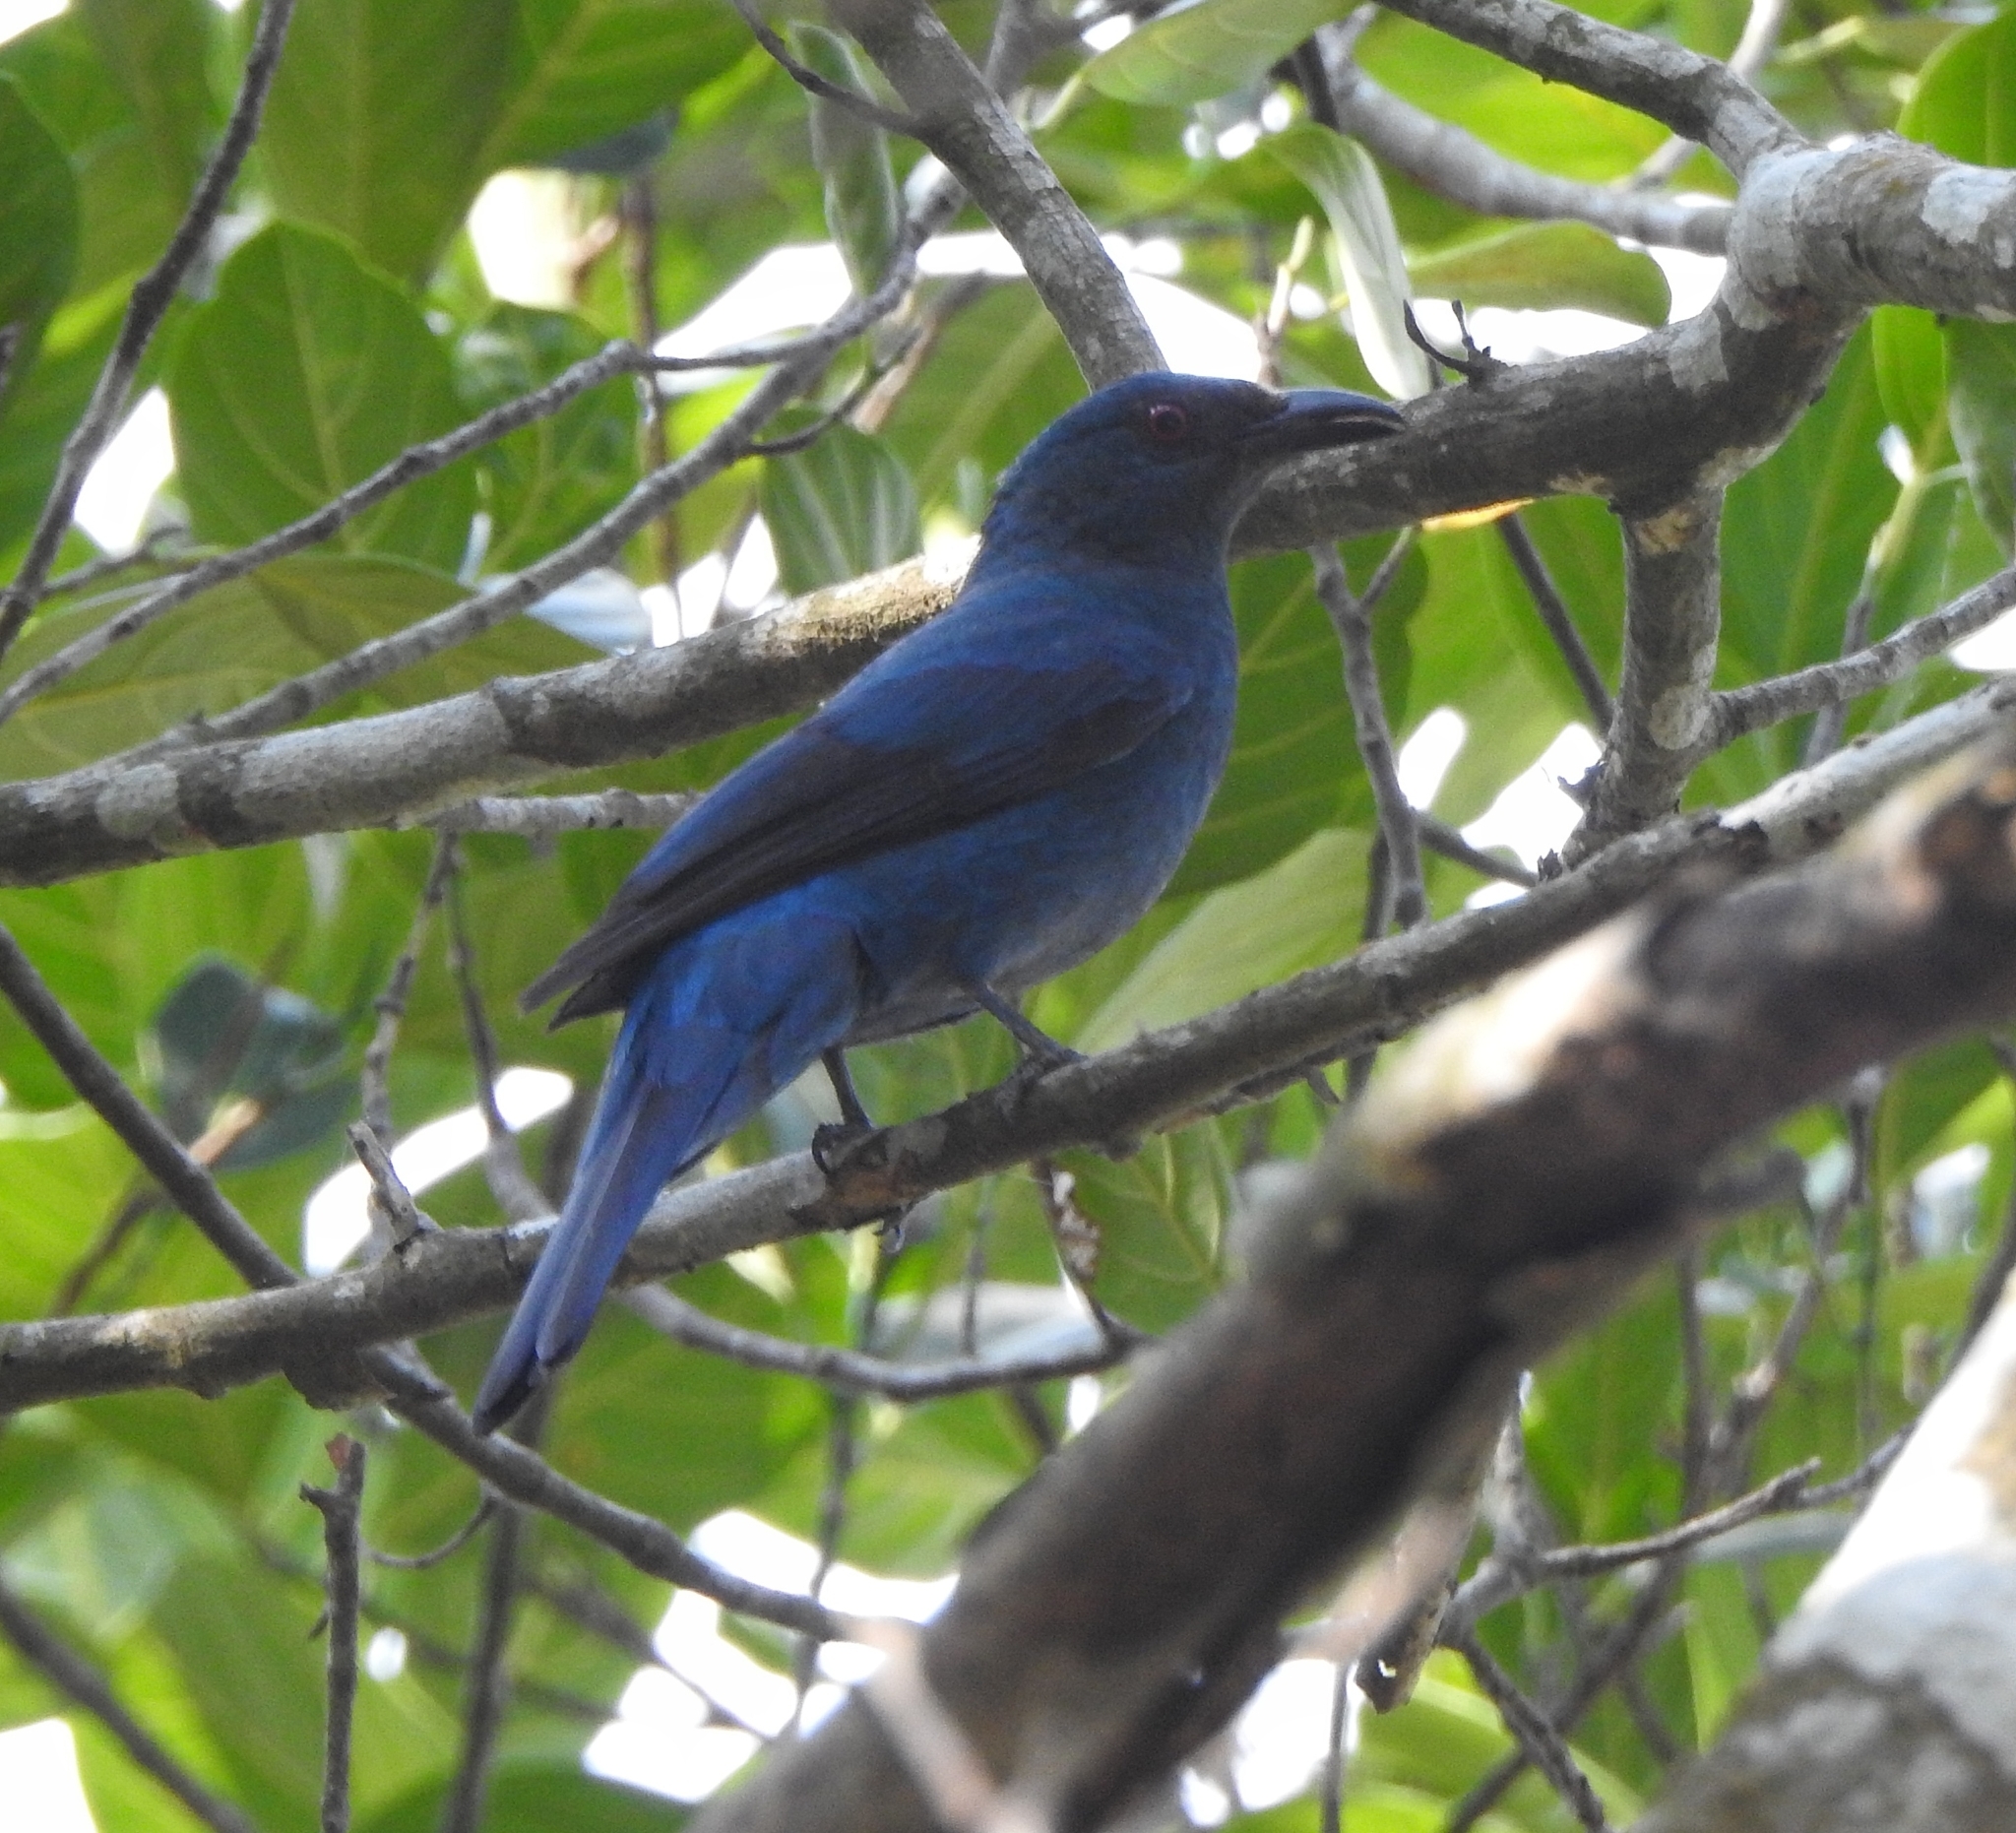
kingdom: Animalia
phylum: Chordata
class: Aves
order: Passeriformes
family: Irenidae
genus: Irena
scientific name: Irena puella
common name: Asian fairy-bluebird
